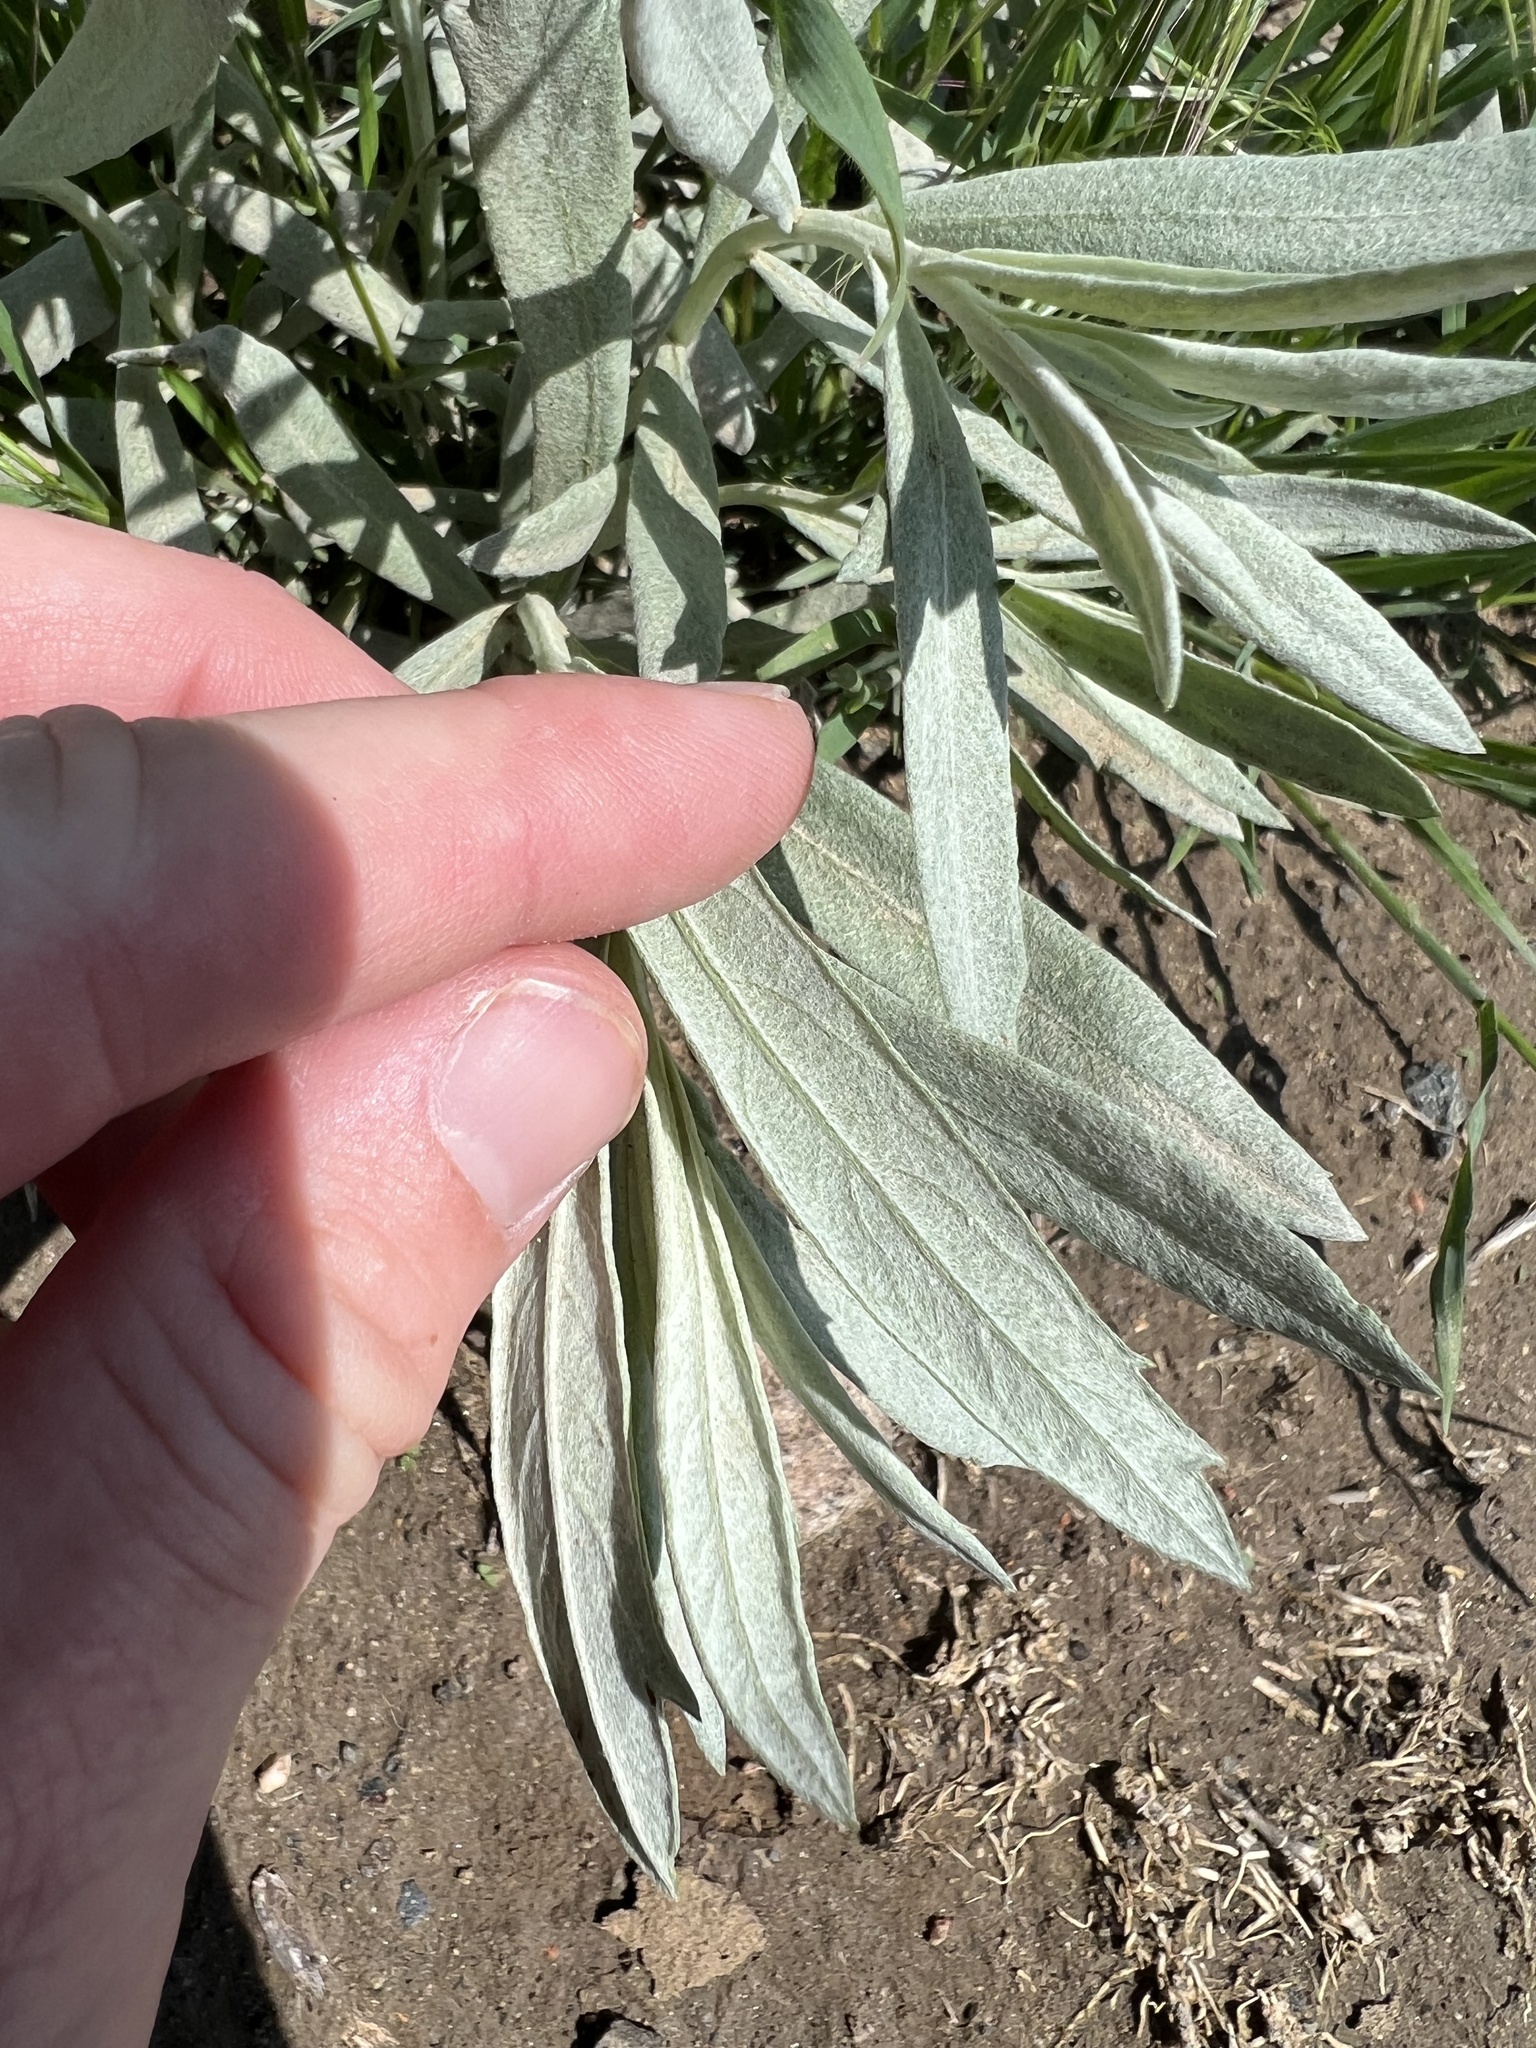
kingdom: Plantae
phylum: Tracheophyta
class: Magnoliopsida
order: Asterales
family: Asteraceae
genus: Artemisia
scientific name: Artemisia ludoviciana
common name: Western mugwort
